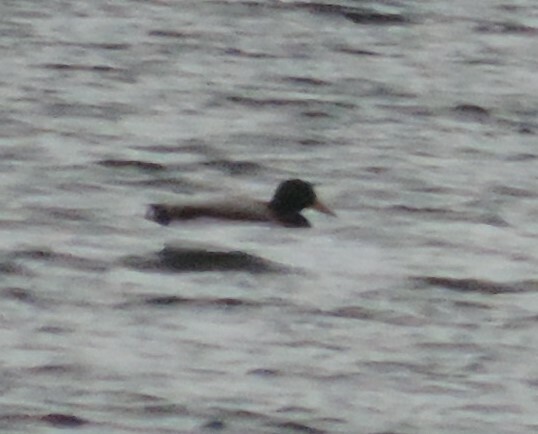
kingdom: Animalia
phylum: Chordata
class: Aves
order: Anseriformes
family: Anatidae
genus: Anas
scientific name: Anas platyrhynchos
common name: Mallard
